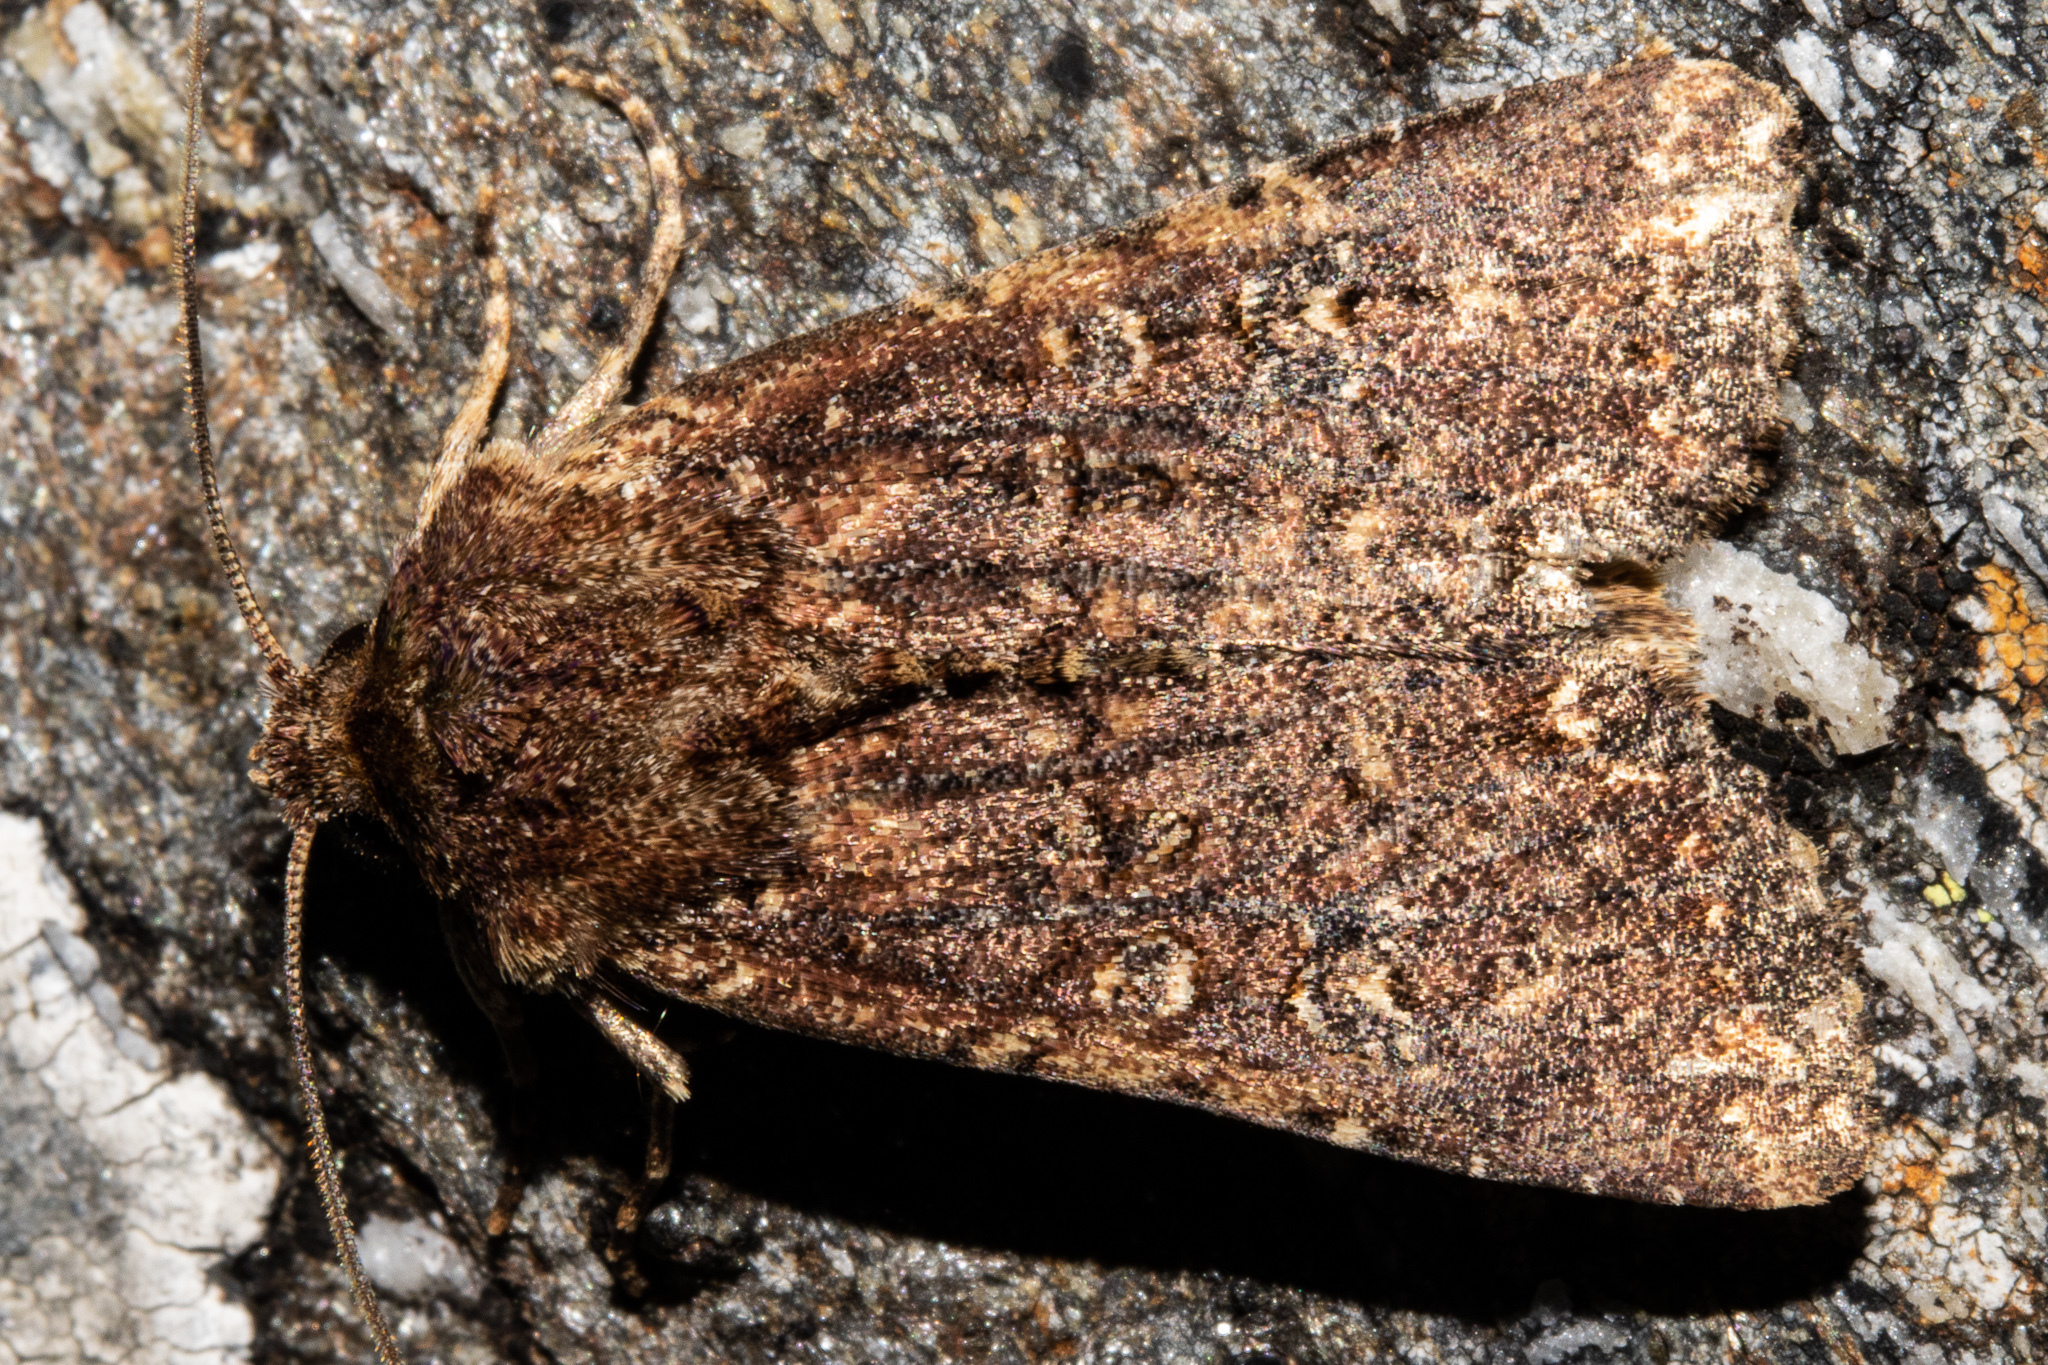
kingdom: Animalia
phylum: Arthropoda
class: Insecta
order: Lepidoptera
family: Noctuidae
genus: Ichneutica
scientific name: Ichneutica mustulenta
